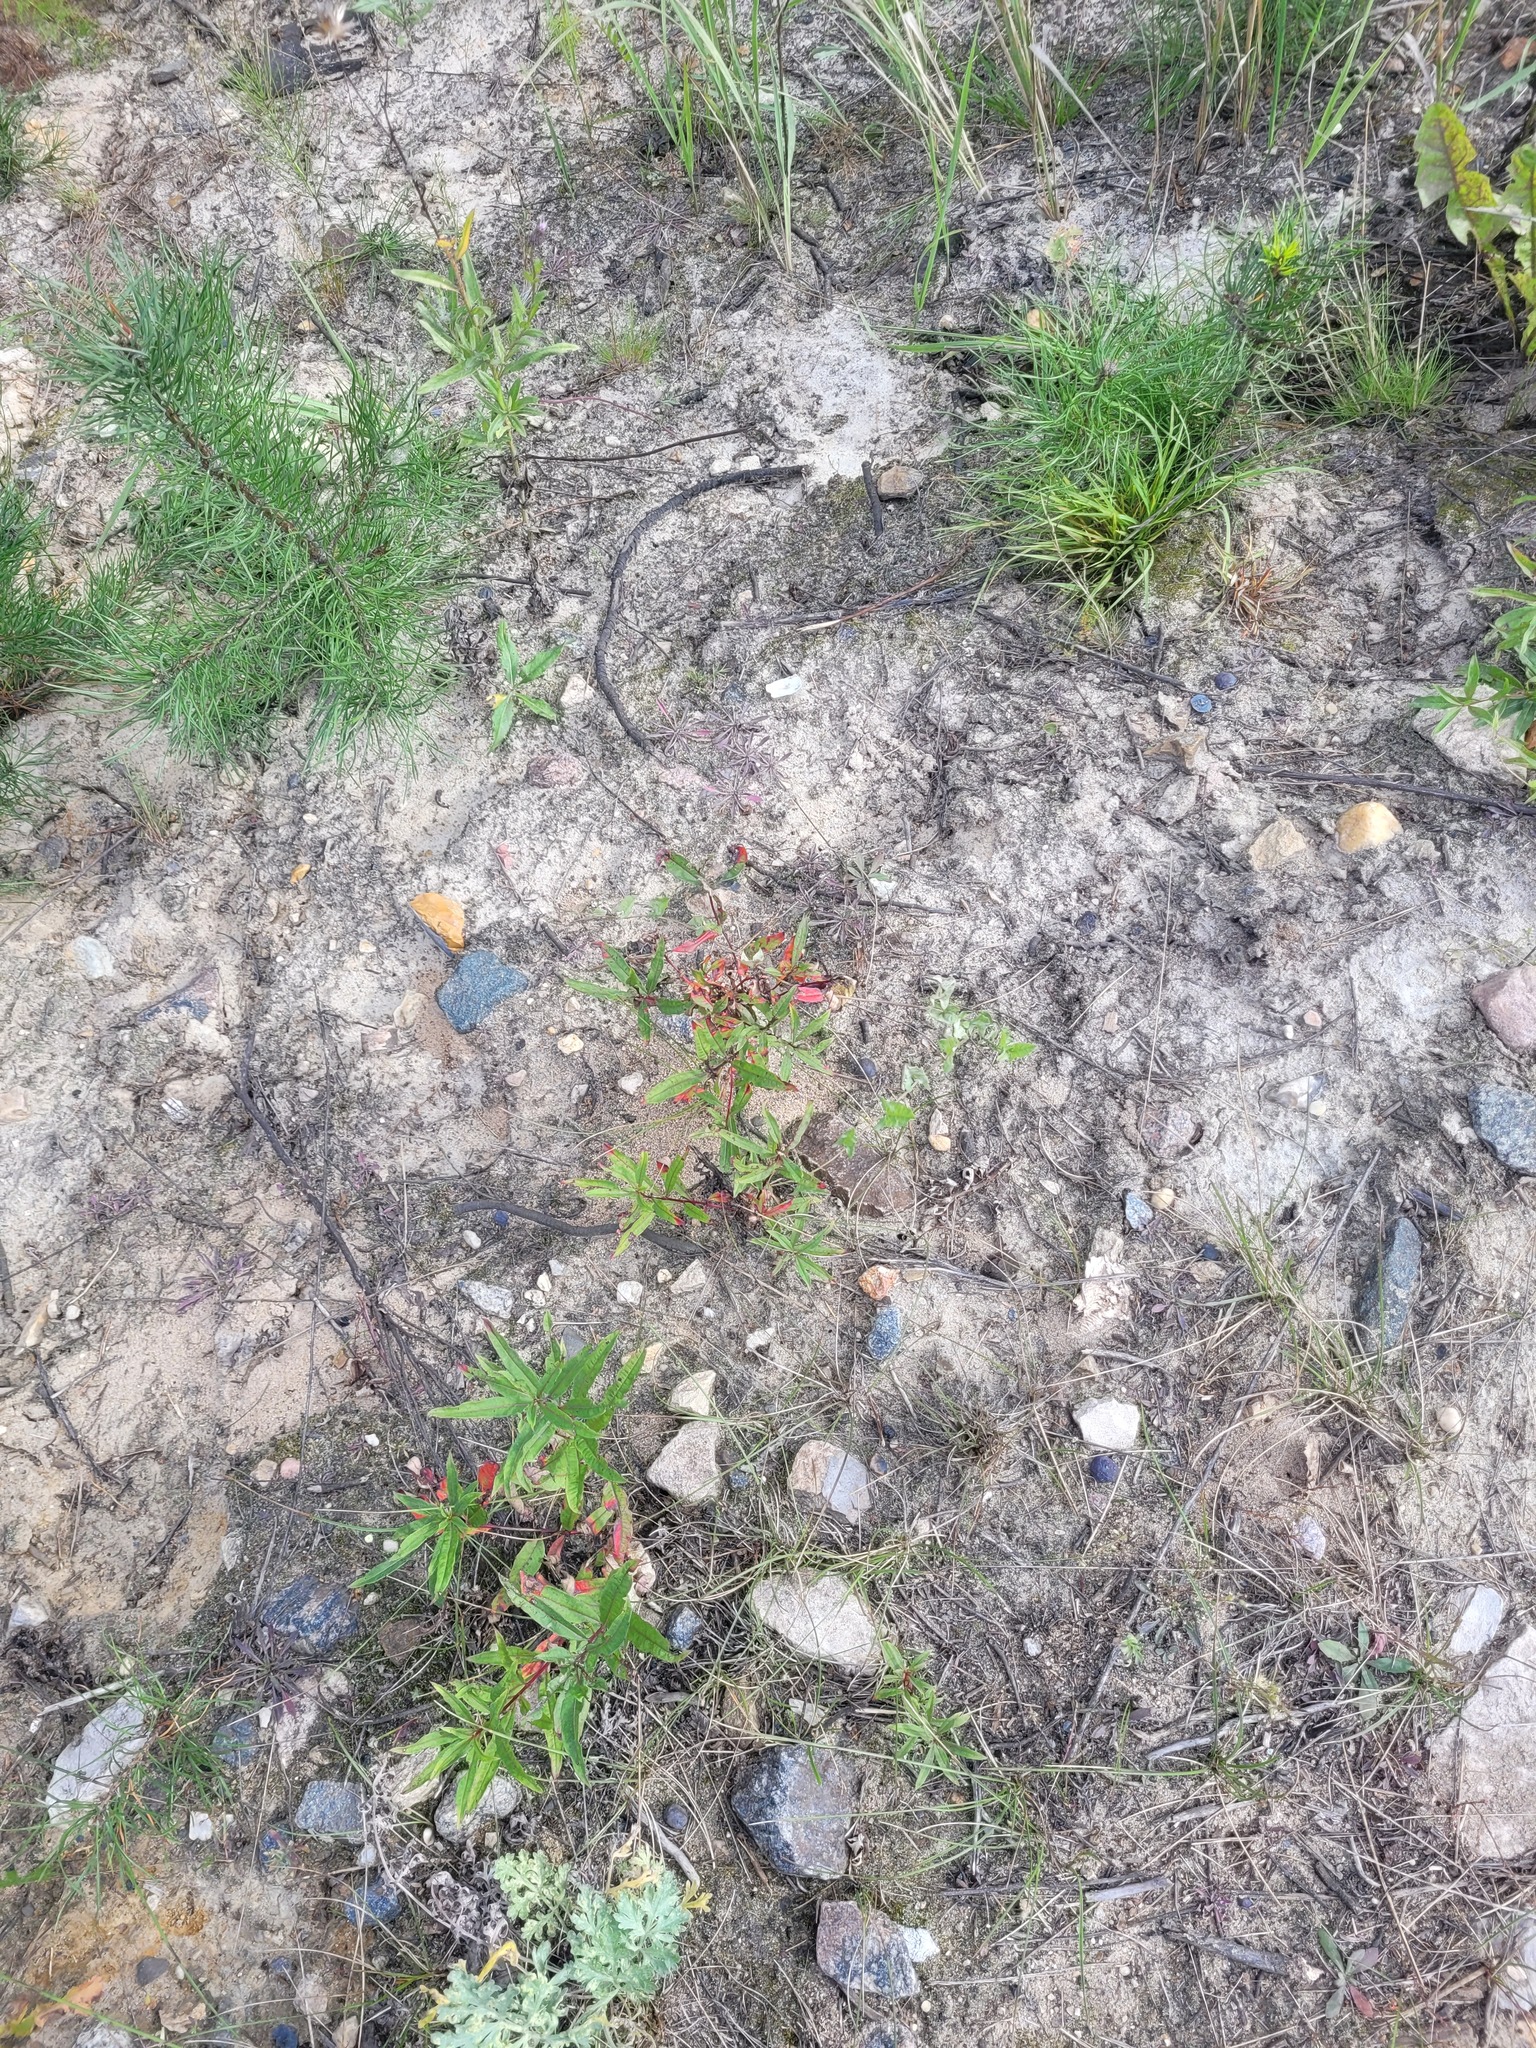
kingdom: Plantae
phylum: Tracheophyta
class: Magnoliopsida
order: Myrtales
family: Onagraceae
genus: Chamaenerion
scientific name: Chamaenerion angustifolium
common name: Fireweed
